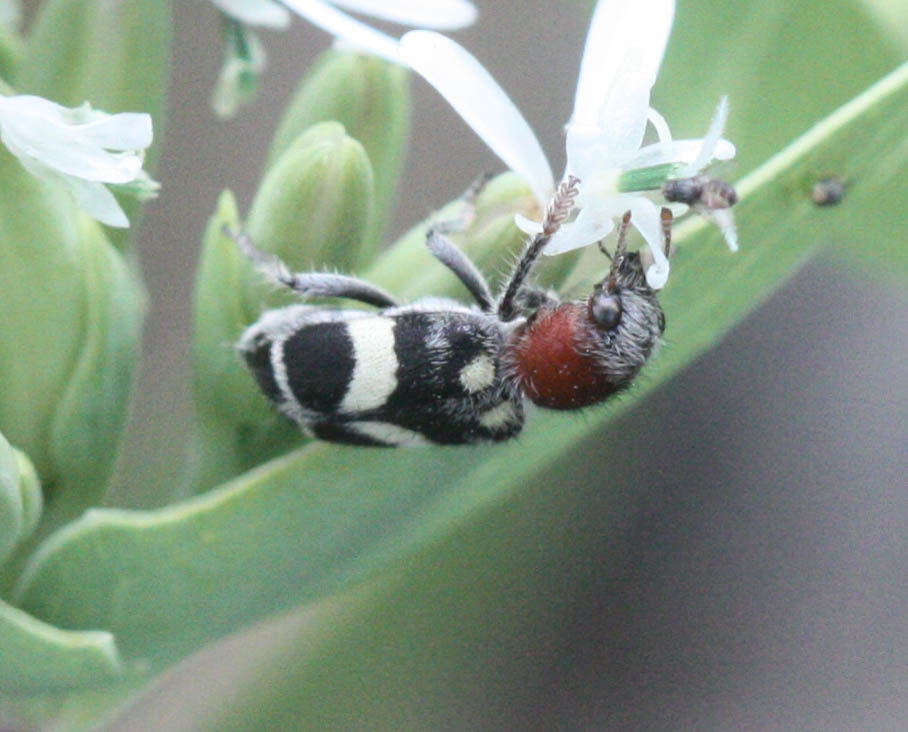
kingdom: Animalia
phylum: Arthropoda
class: Insecta
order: Coleoptera
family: Cleridae
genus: Enoclerus
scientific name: Enoclerus laetus
